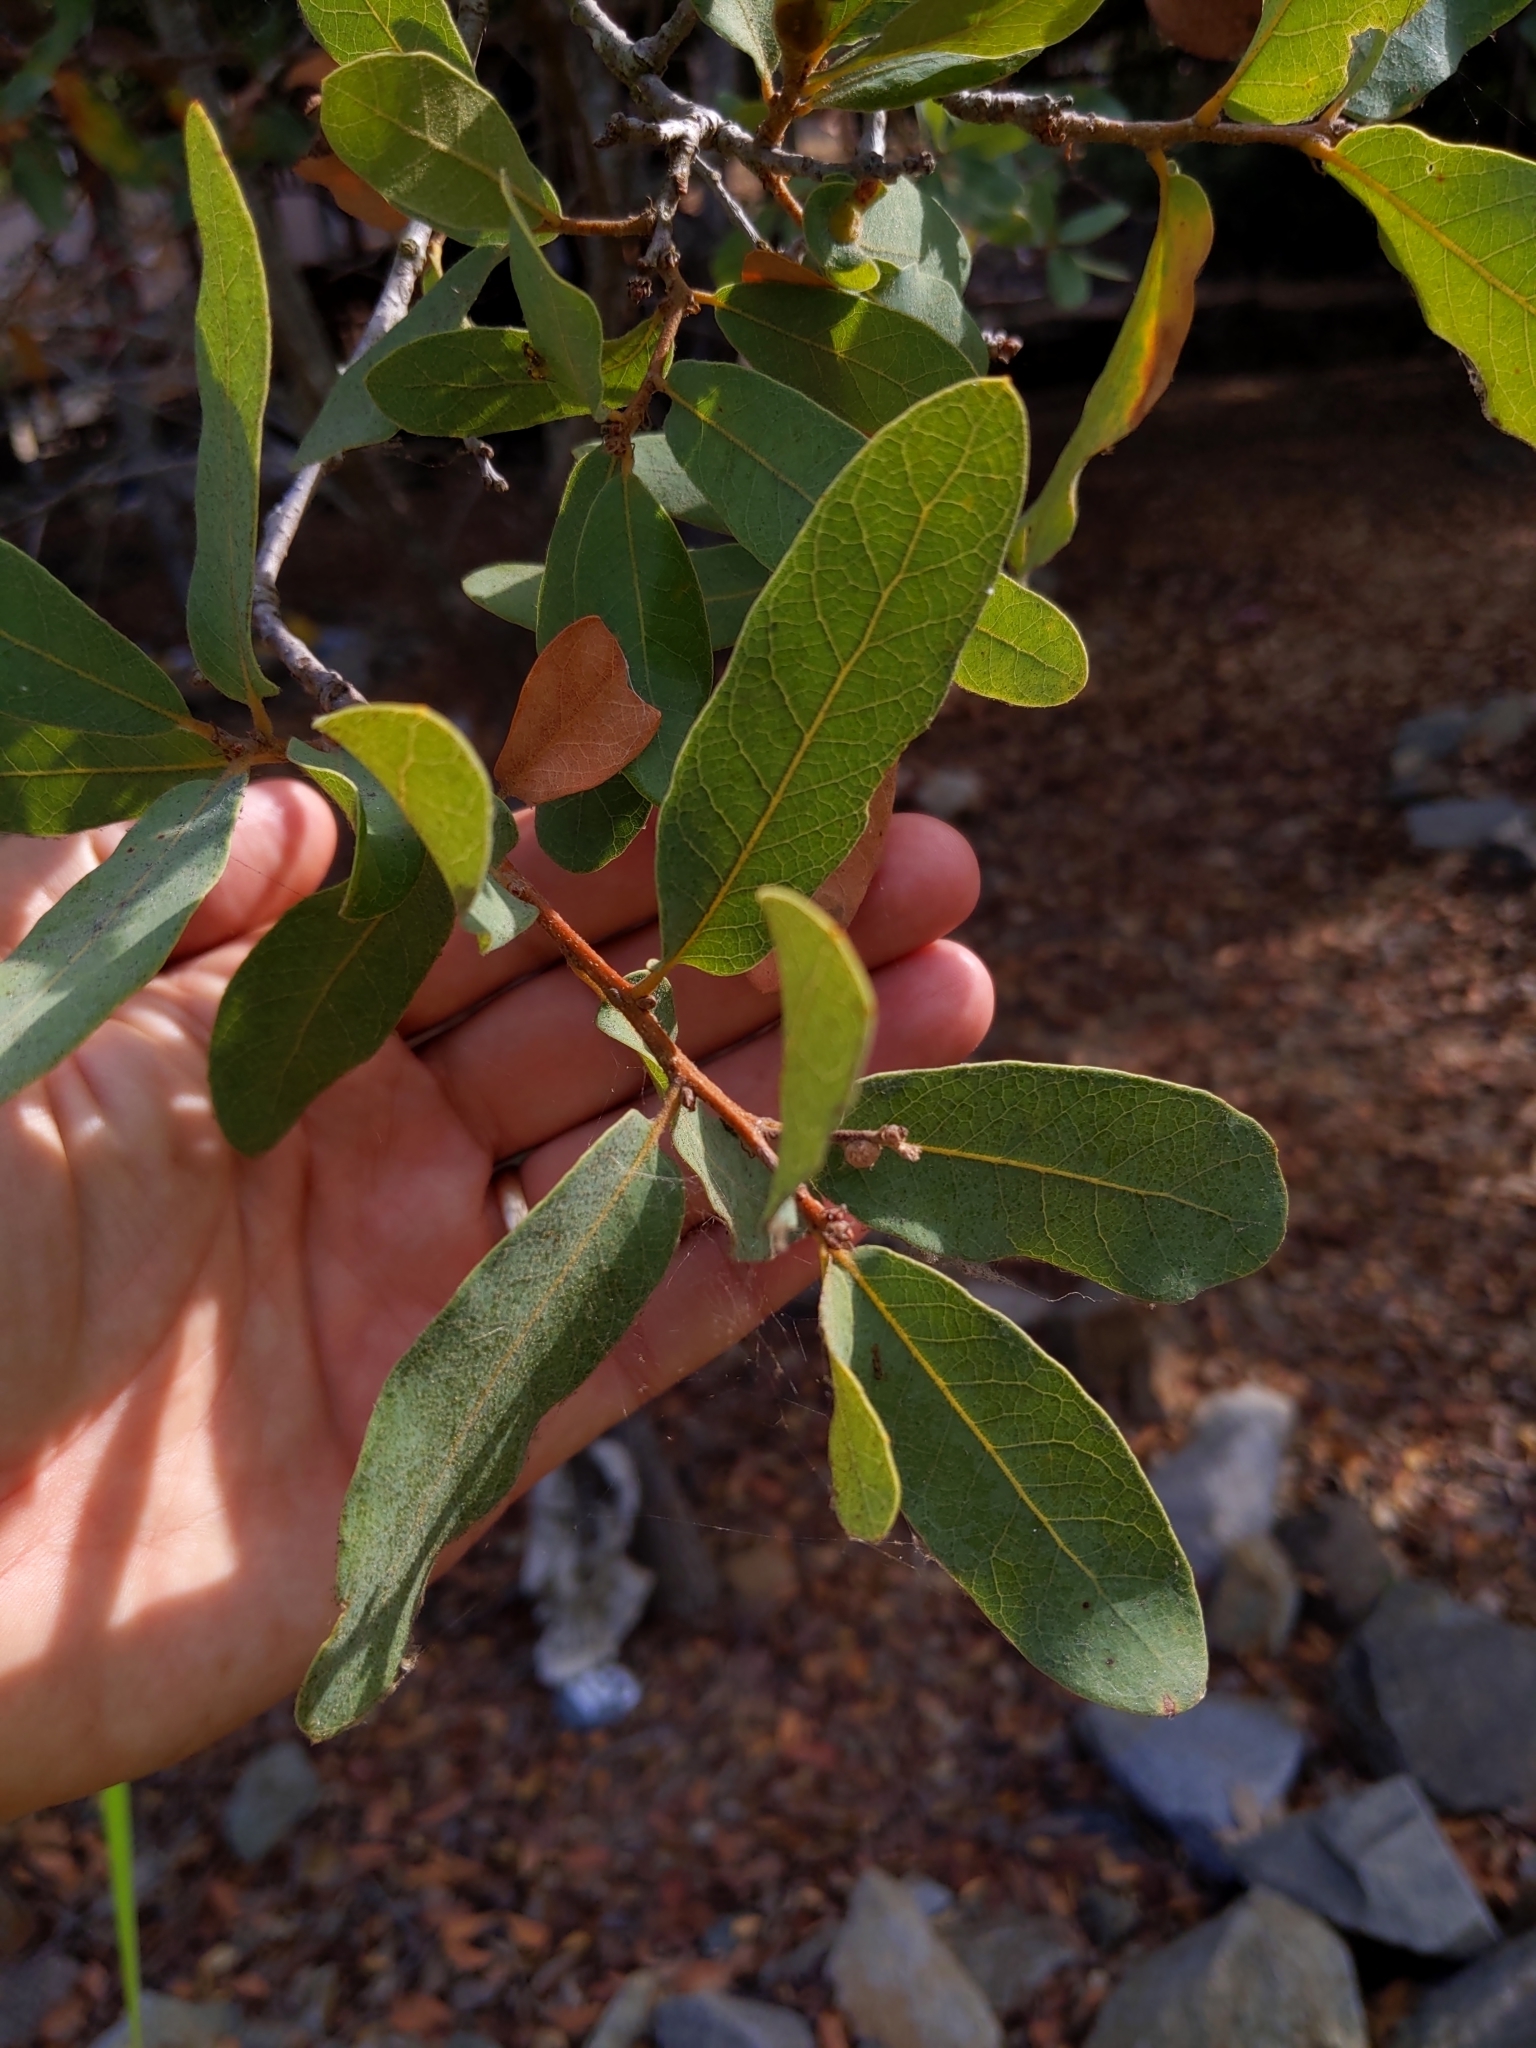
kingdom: Plantae
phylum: Tracheophyta
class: Magnoliopsida
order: Fagales
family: Fagaceae
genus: Quercus
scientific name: Quercus engelmannii
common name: Engelmann oak
